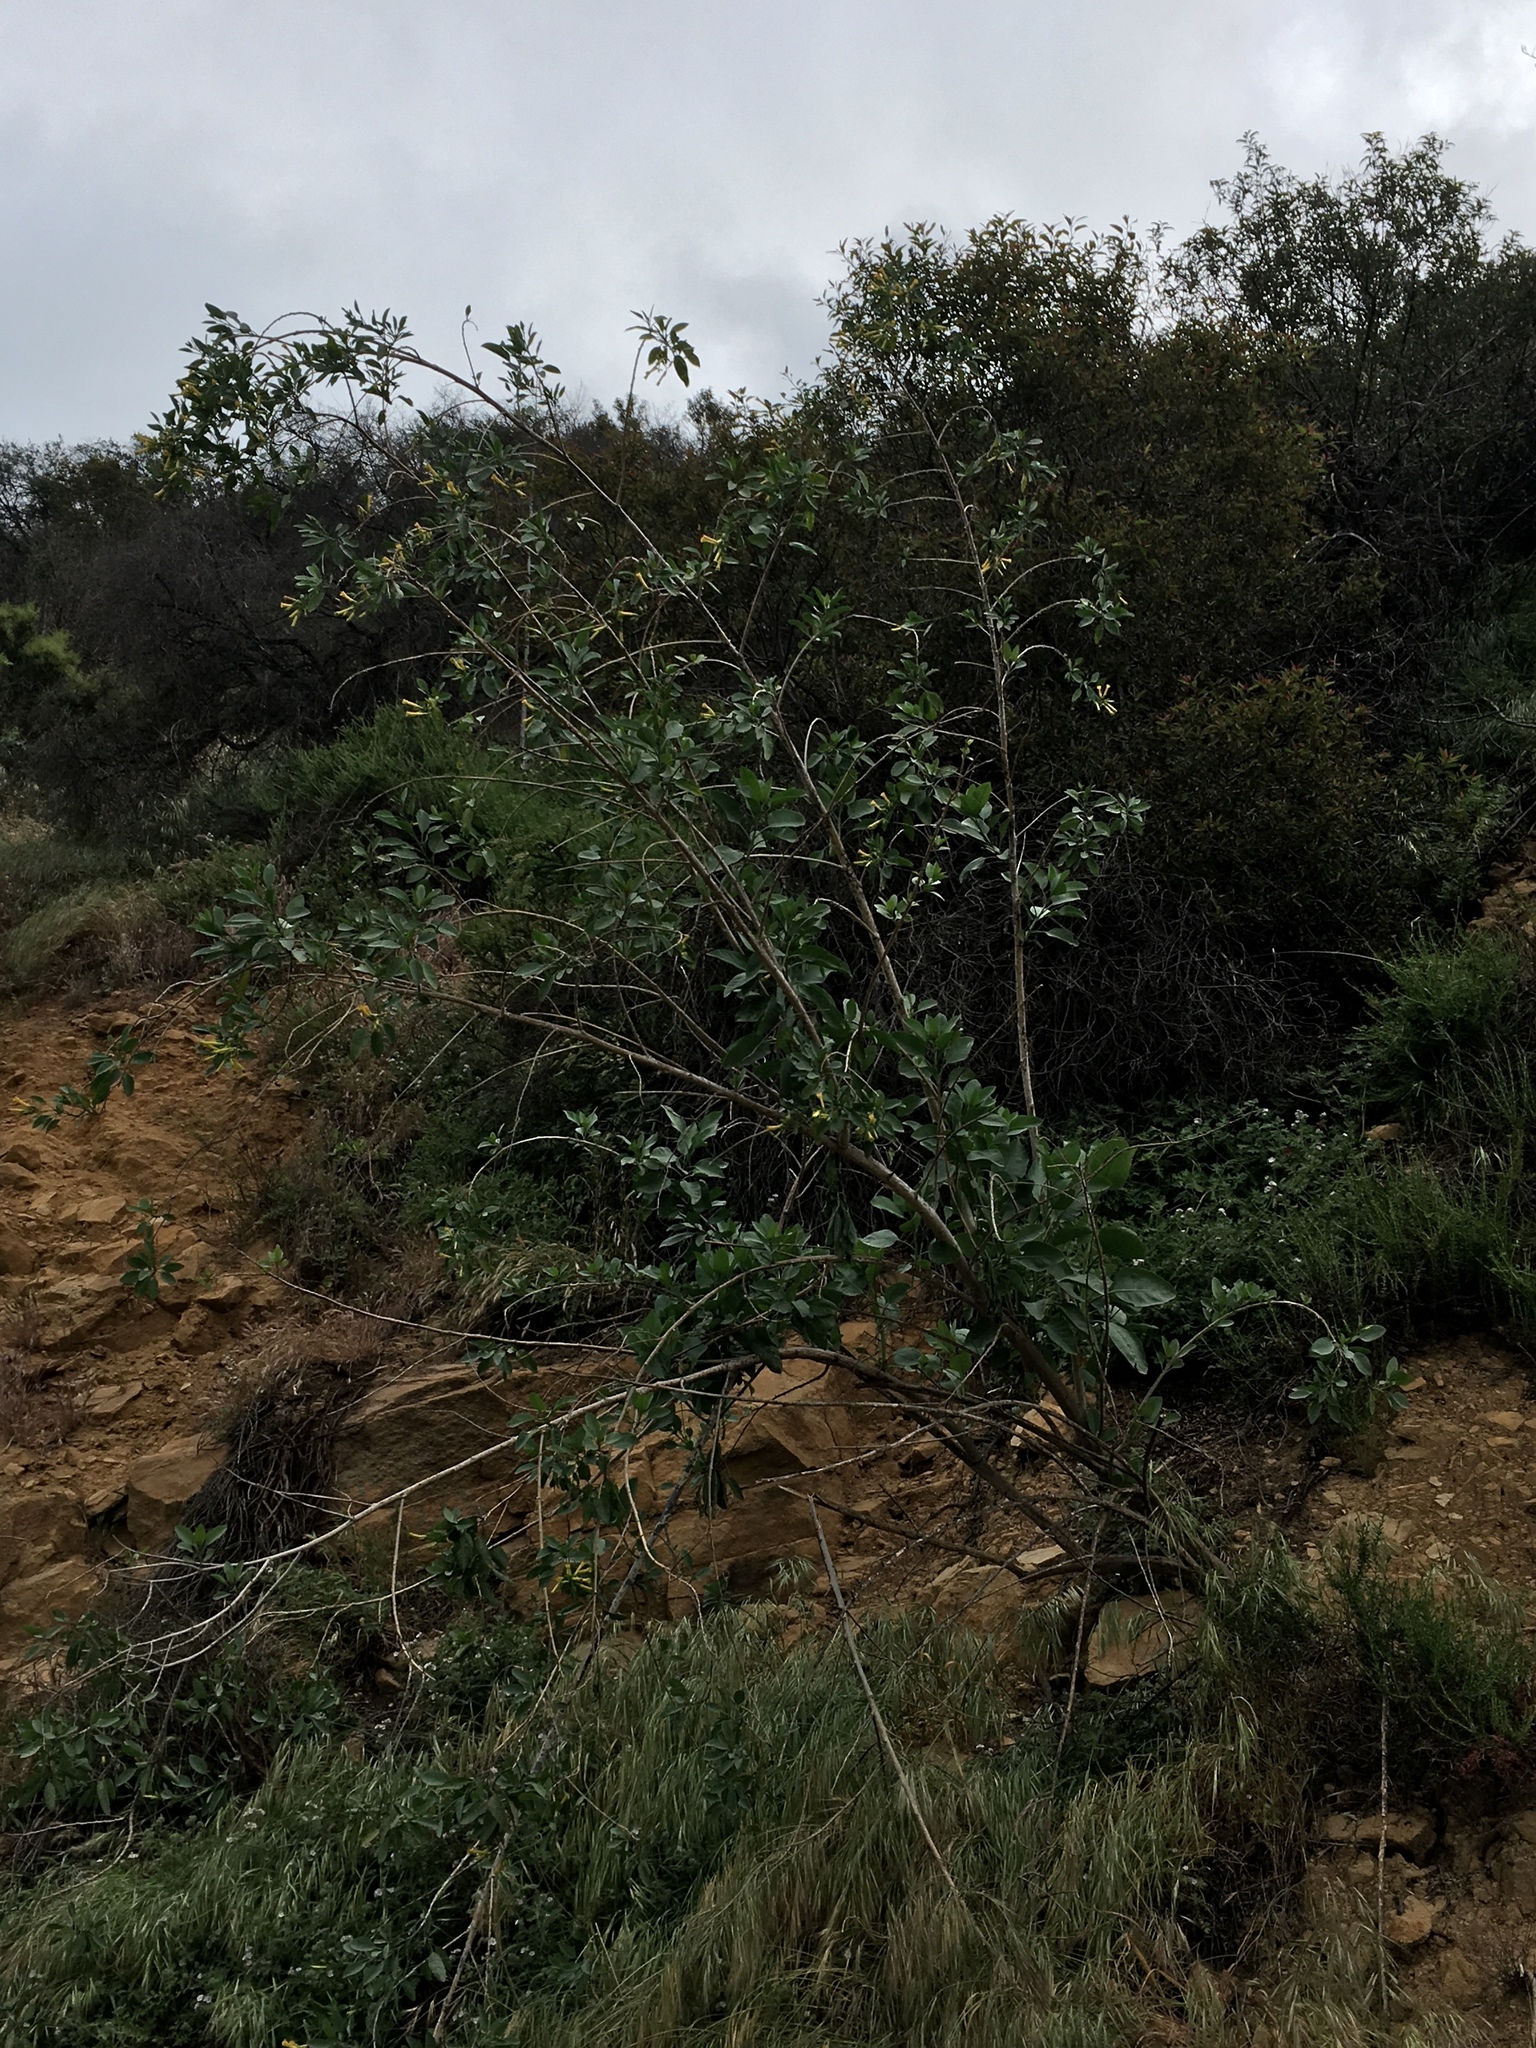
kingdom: Plantae
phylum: Tracheophyta
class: Magnoliopsida
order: Solanales
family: Solanaceae
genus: Nicotiana
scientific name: Nicotiana glauca
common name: Tree tobacco
